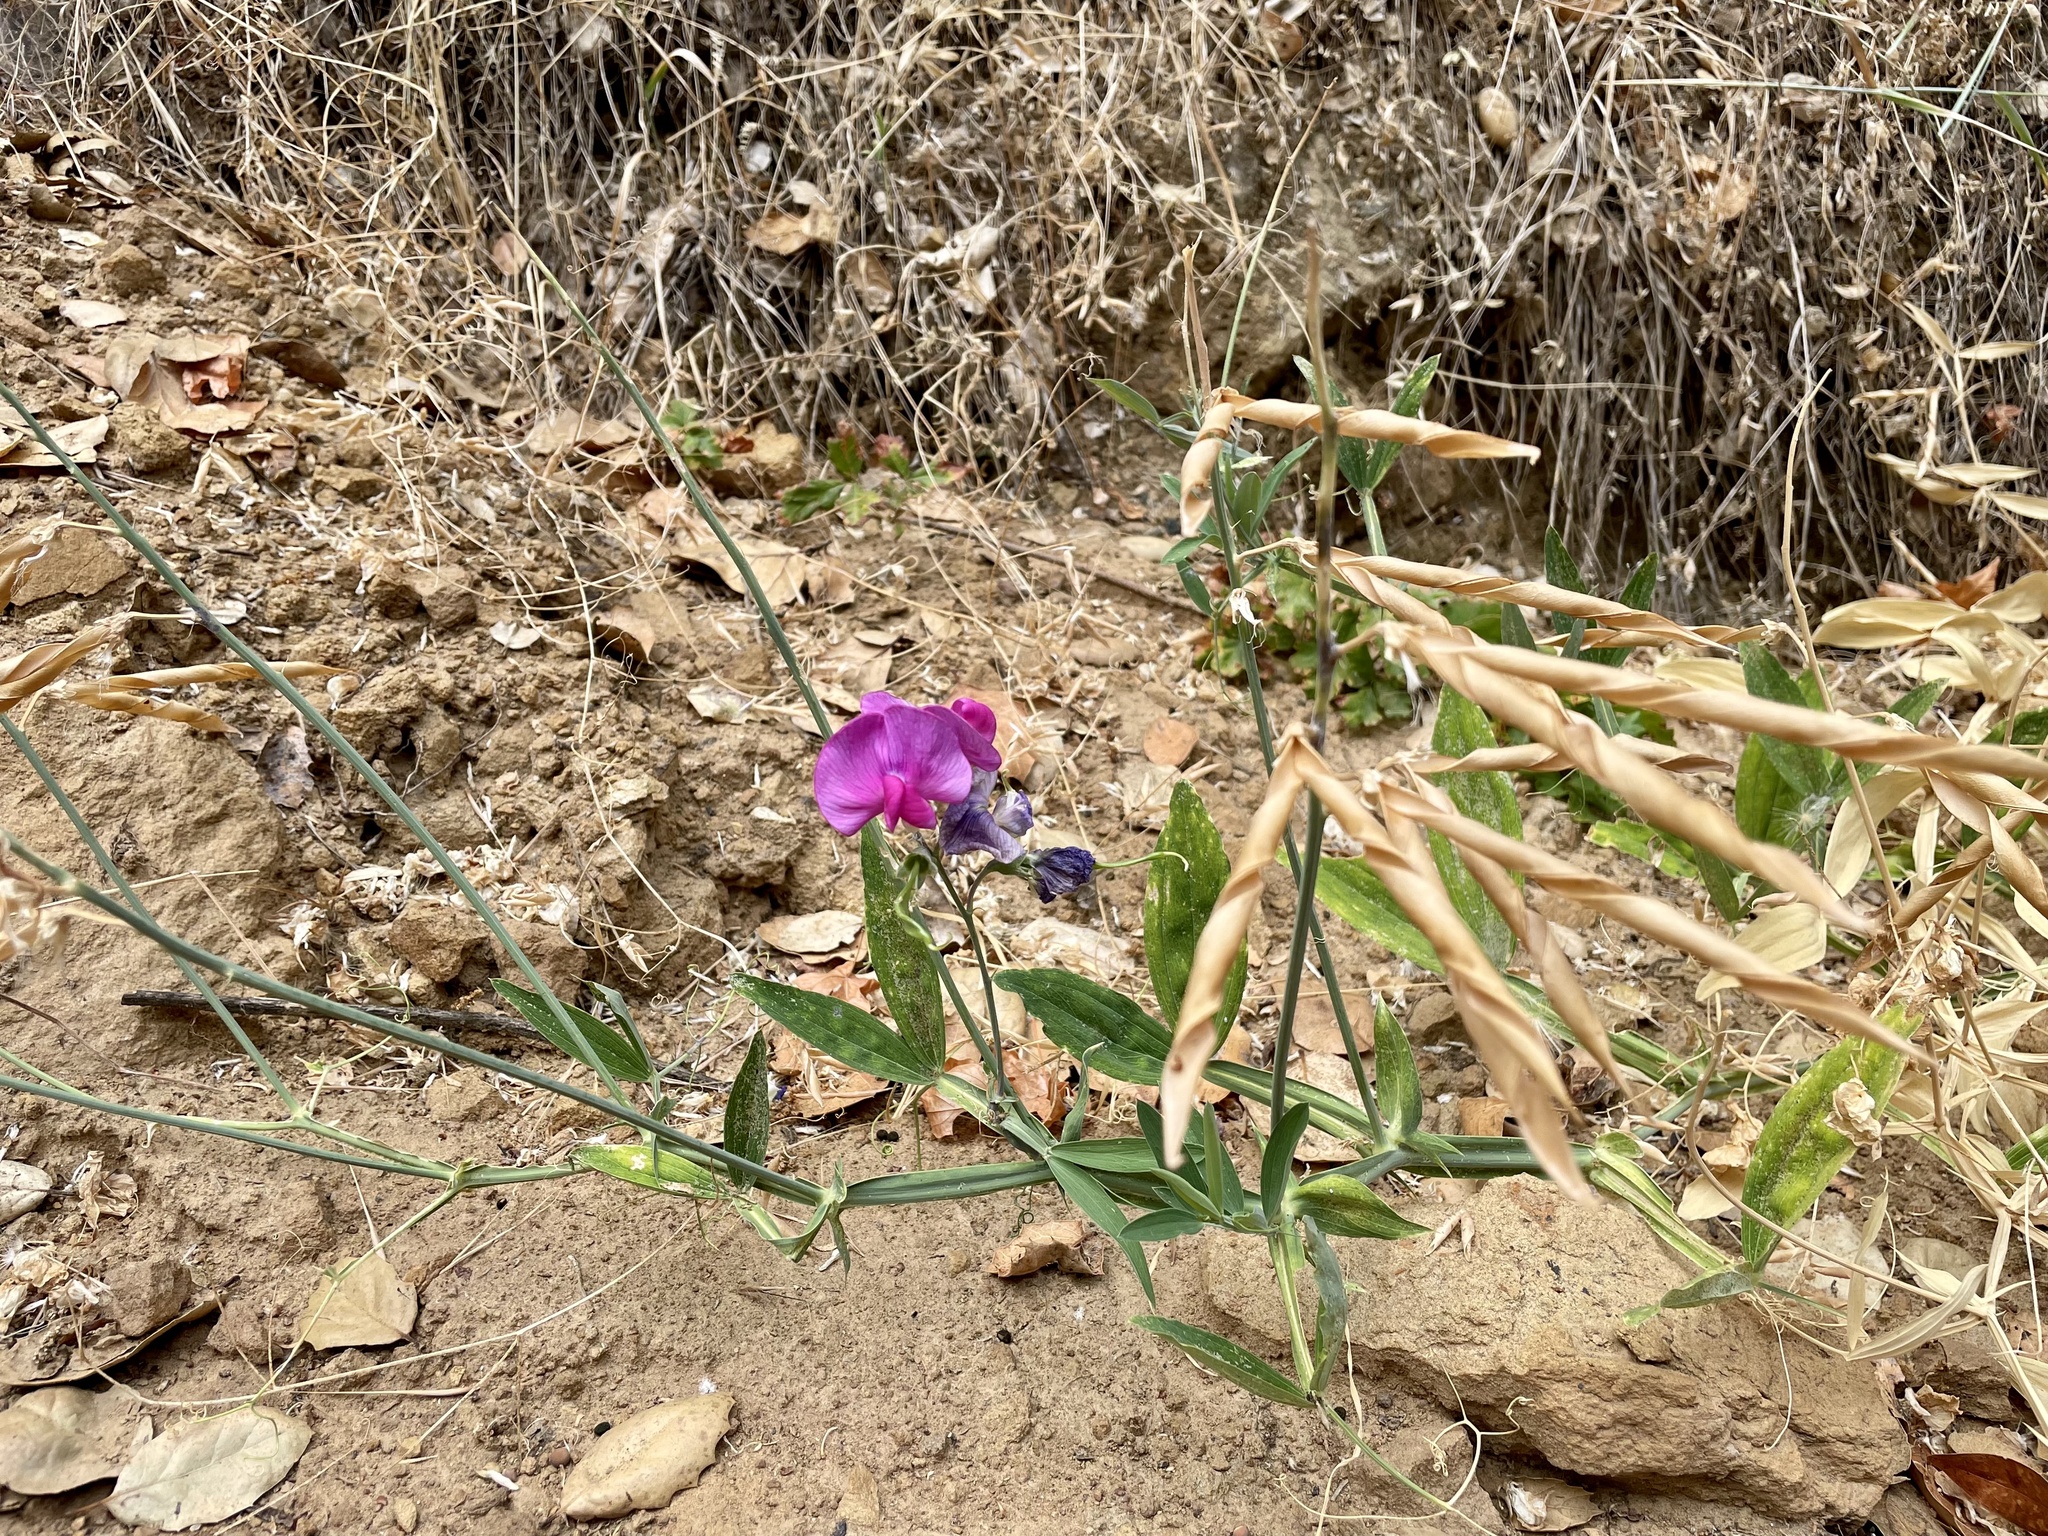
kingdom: Plantae
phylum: Tracheophyta
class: Magnoliopsida
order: Fabales
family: Fabaceae
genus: Lathyrus
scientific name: Lathyrus latifolius
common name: Perennial pea
